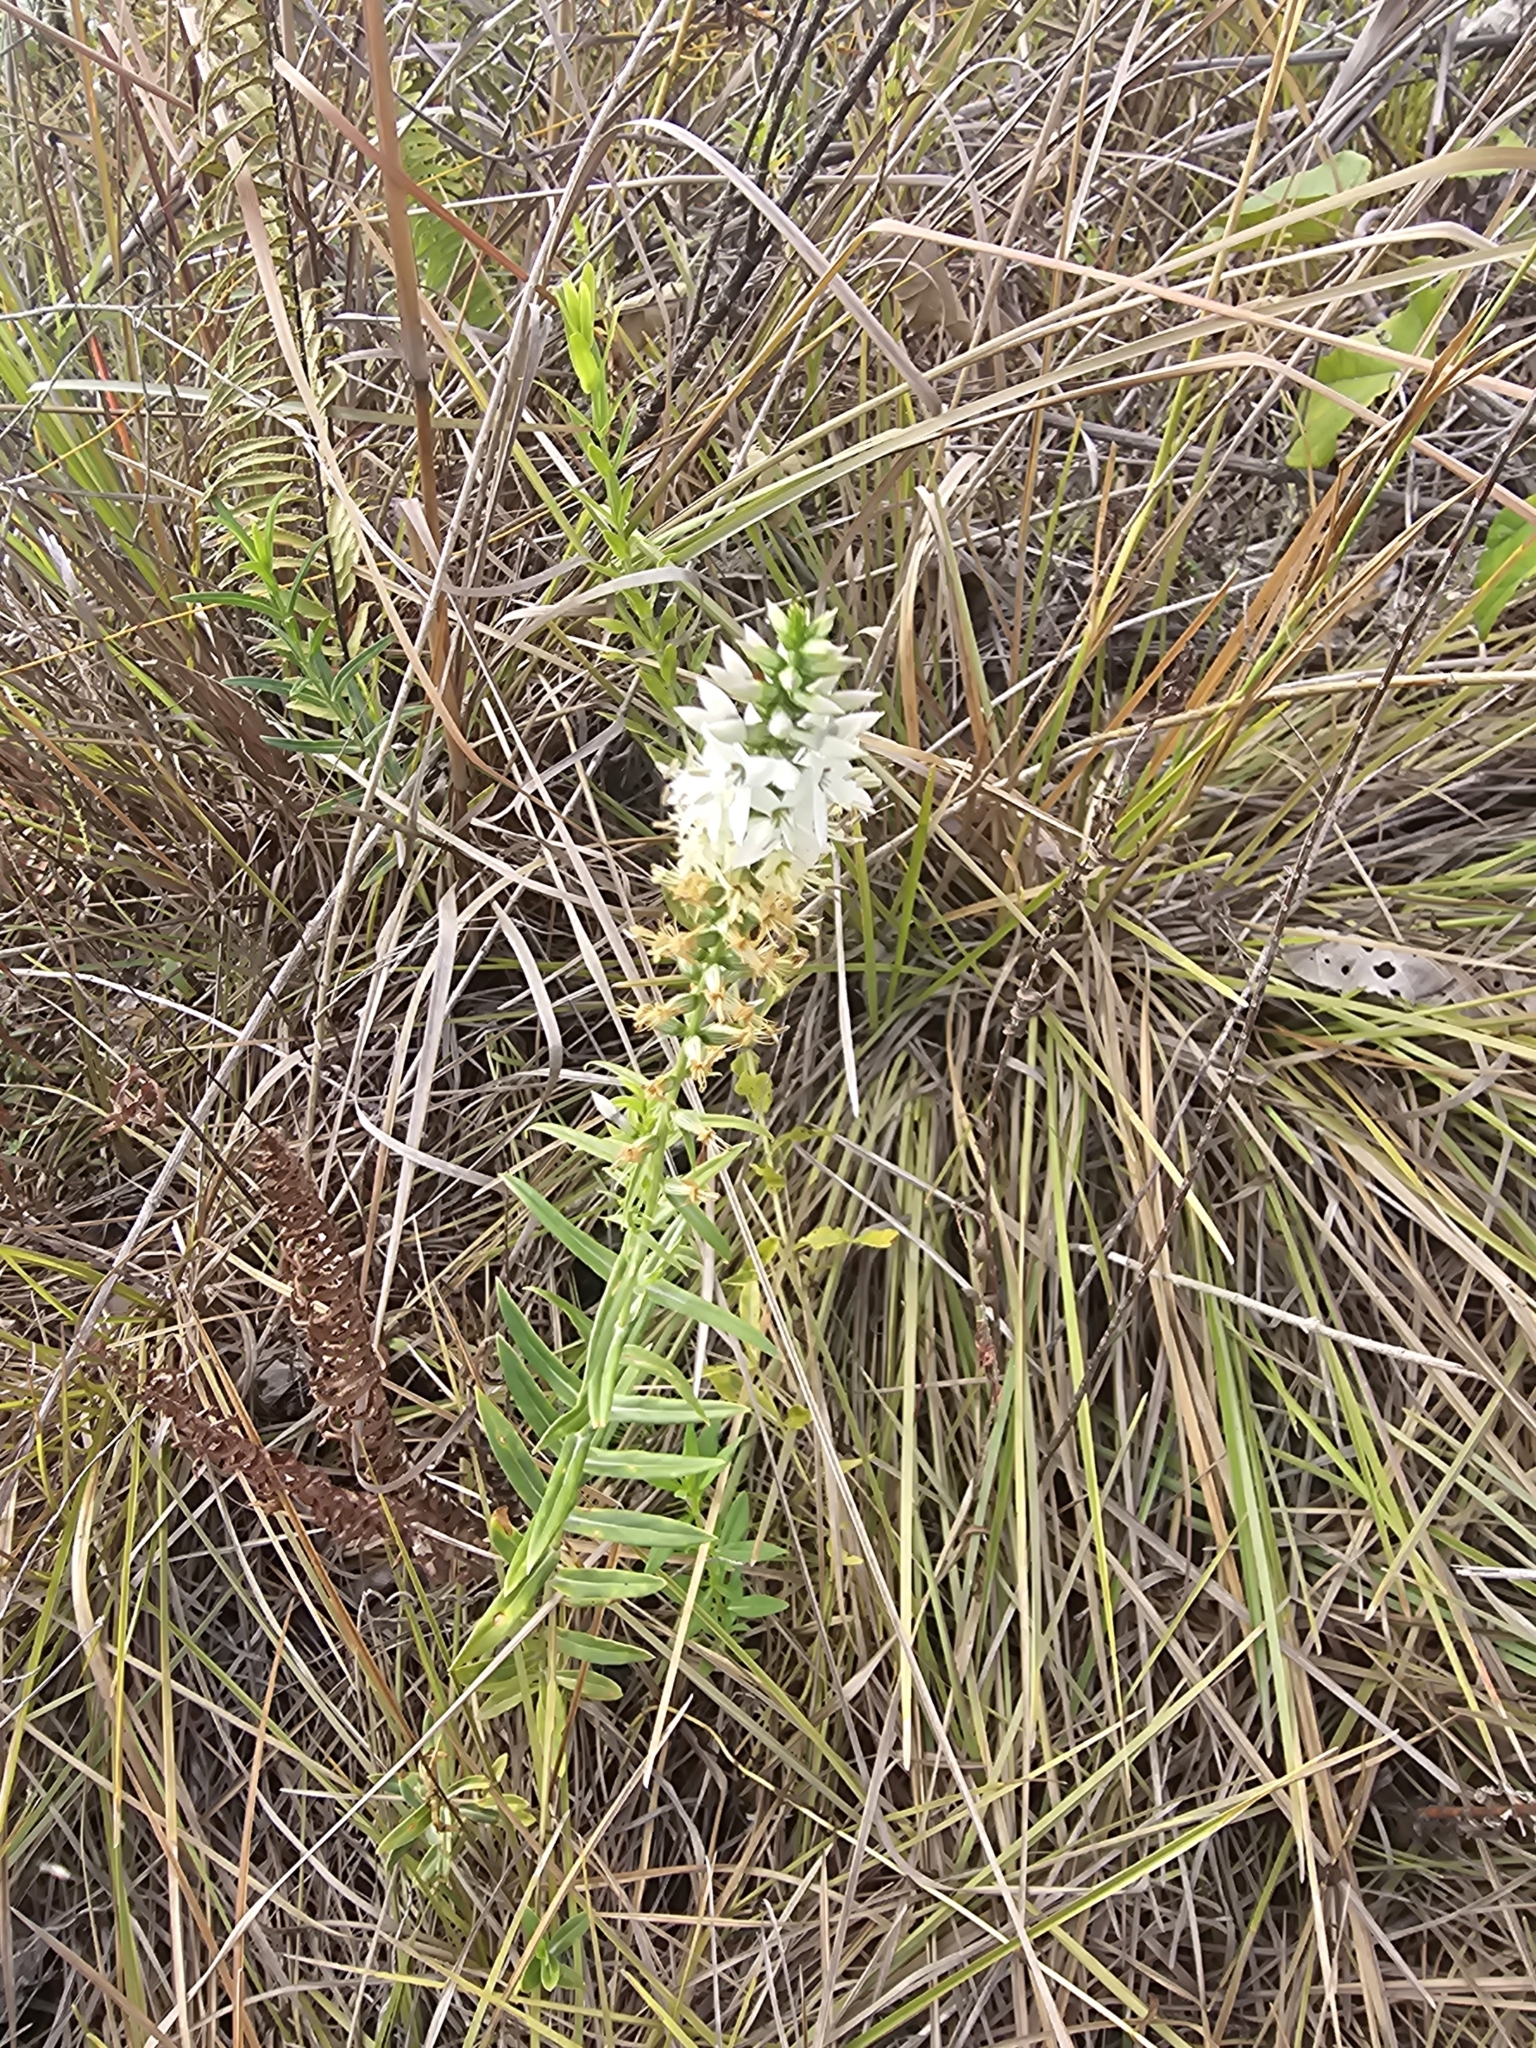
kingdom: Plantae
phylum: Tracheophyta
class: Magnoliopsida
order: Gentianales
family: Gentianaceae
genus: Coutoubea
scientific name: Coutoubea spicata
